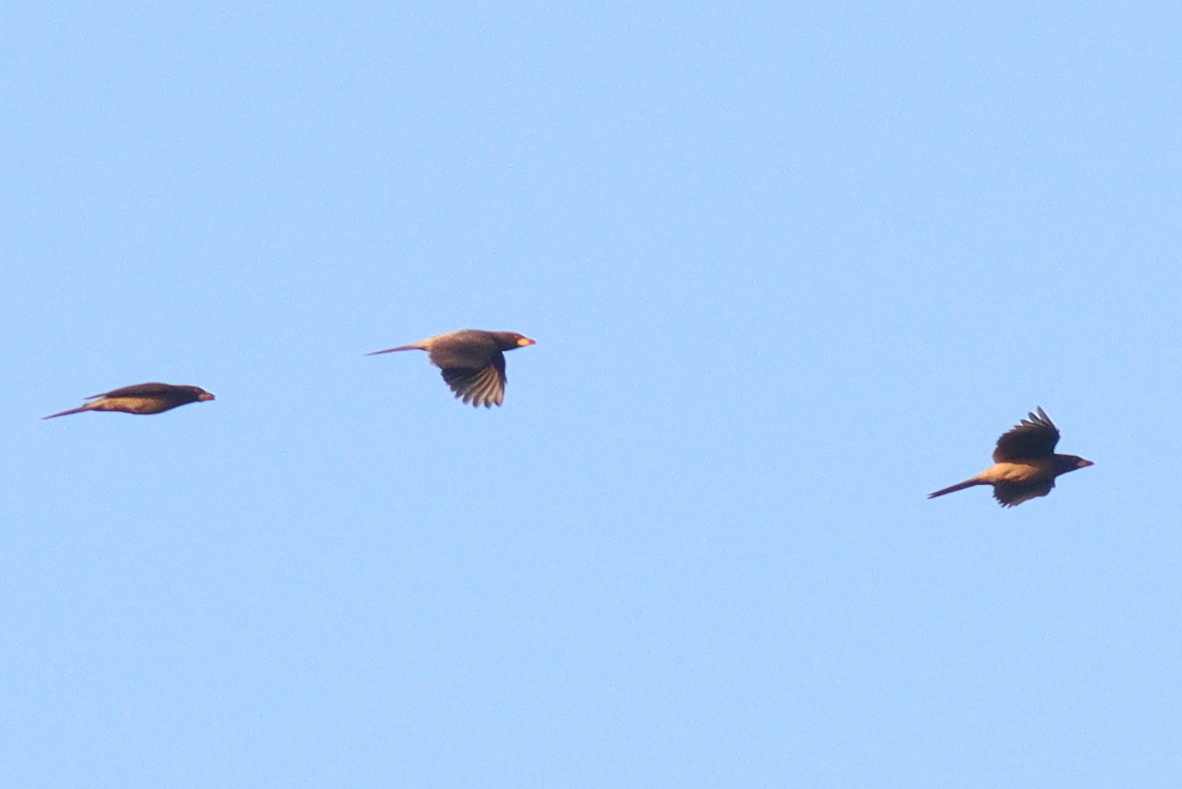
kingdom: Animalia
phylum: Chordata
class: Aves
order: Passeriformes
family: Buphagidae
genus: Buphagus
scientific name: Buphagus africanus
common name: Yellow-billed oxpecker
